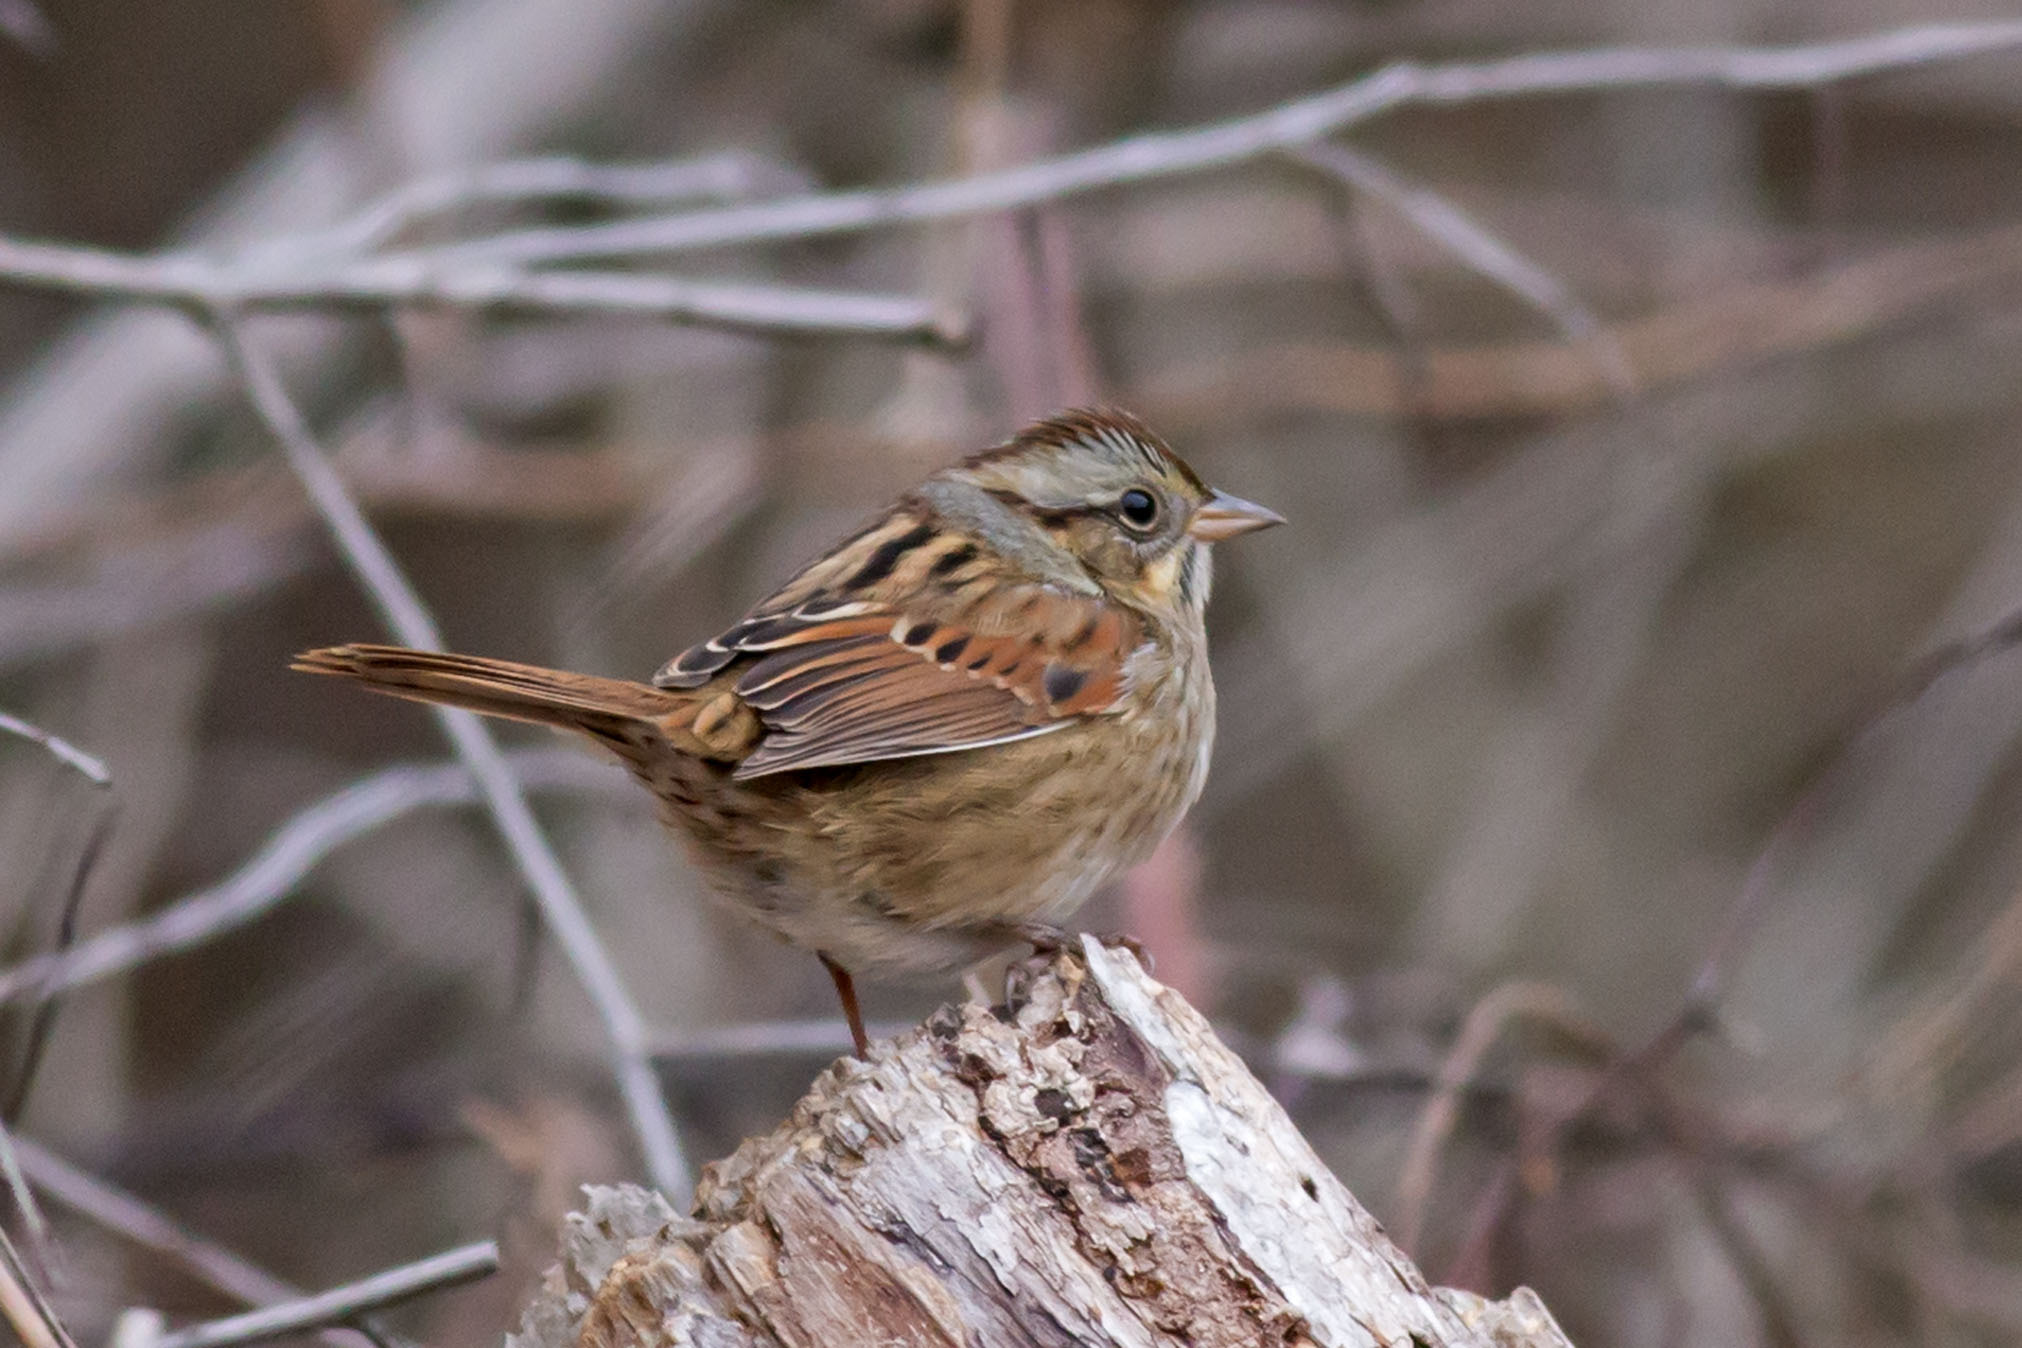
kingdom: Animalia
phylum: Chordata
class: Aves
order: Passeriformes
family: Passerellidae
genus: Melospiza
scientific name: Melospiza georgiana
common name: Swamp sparrow
